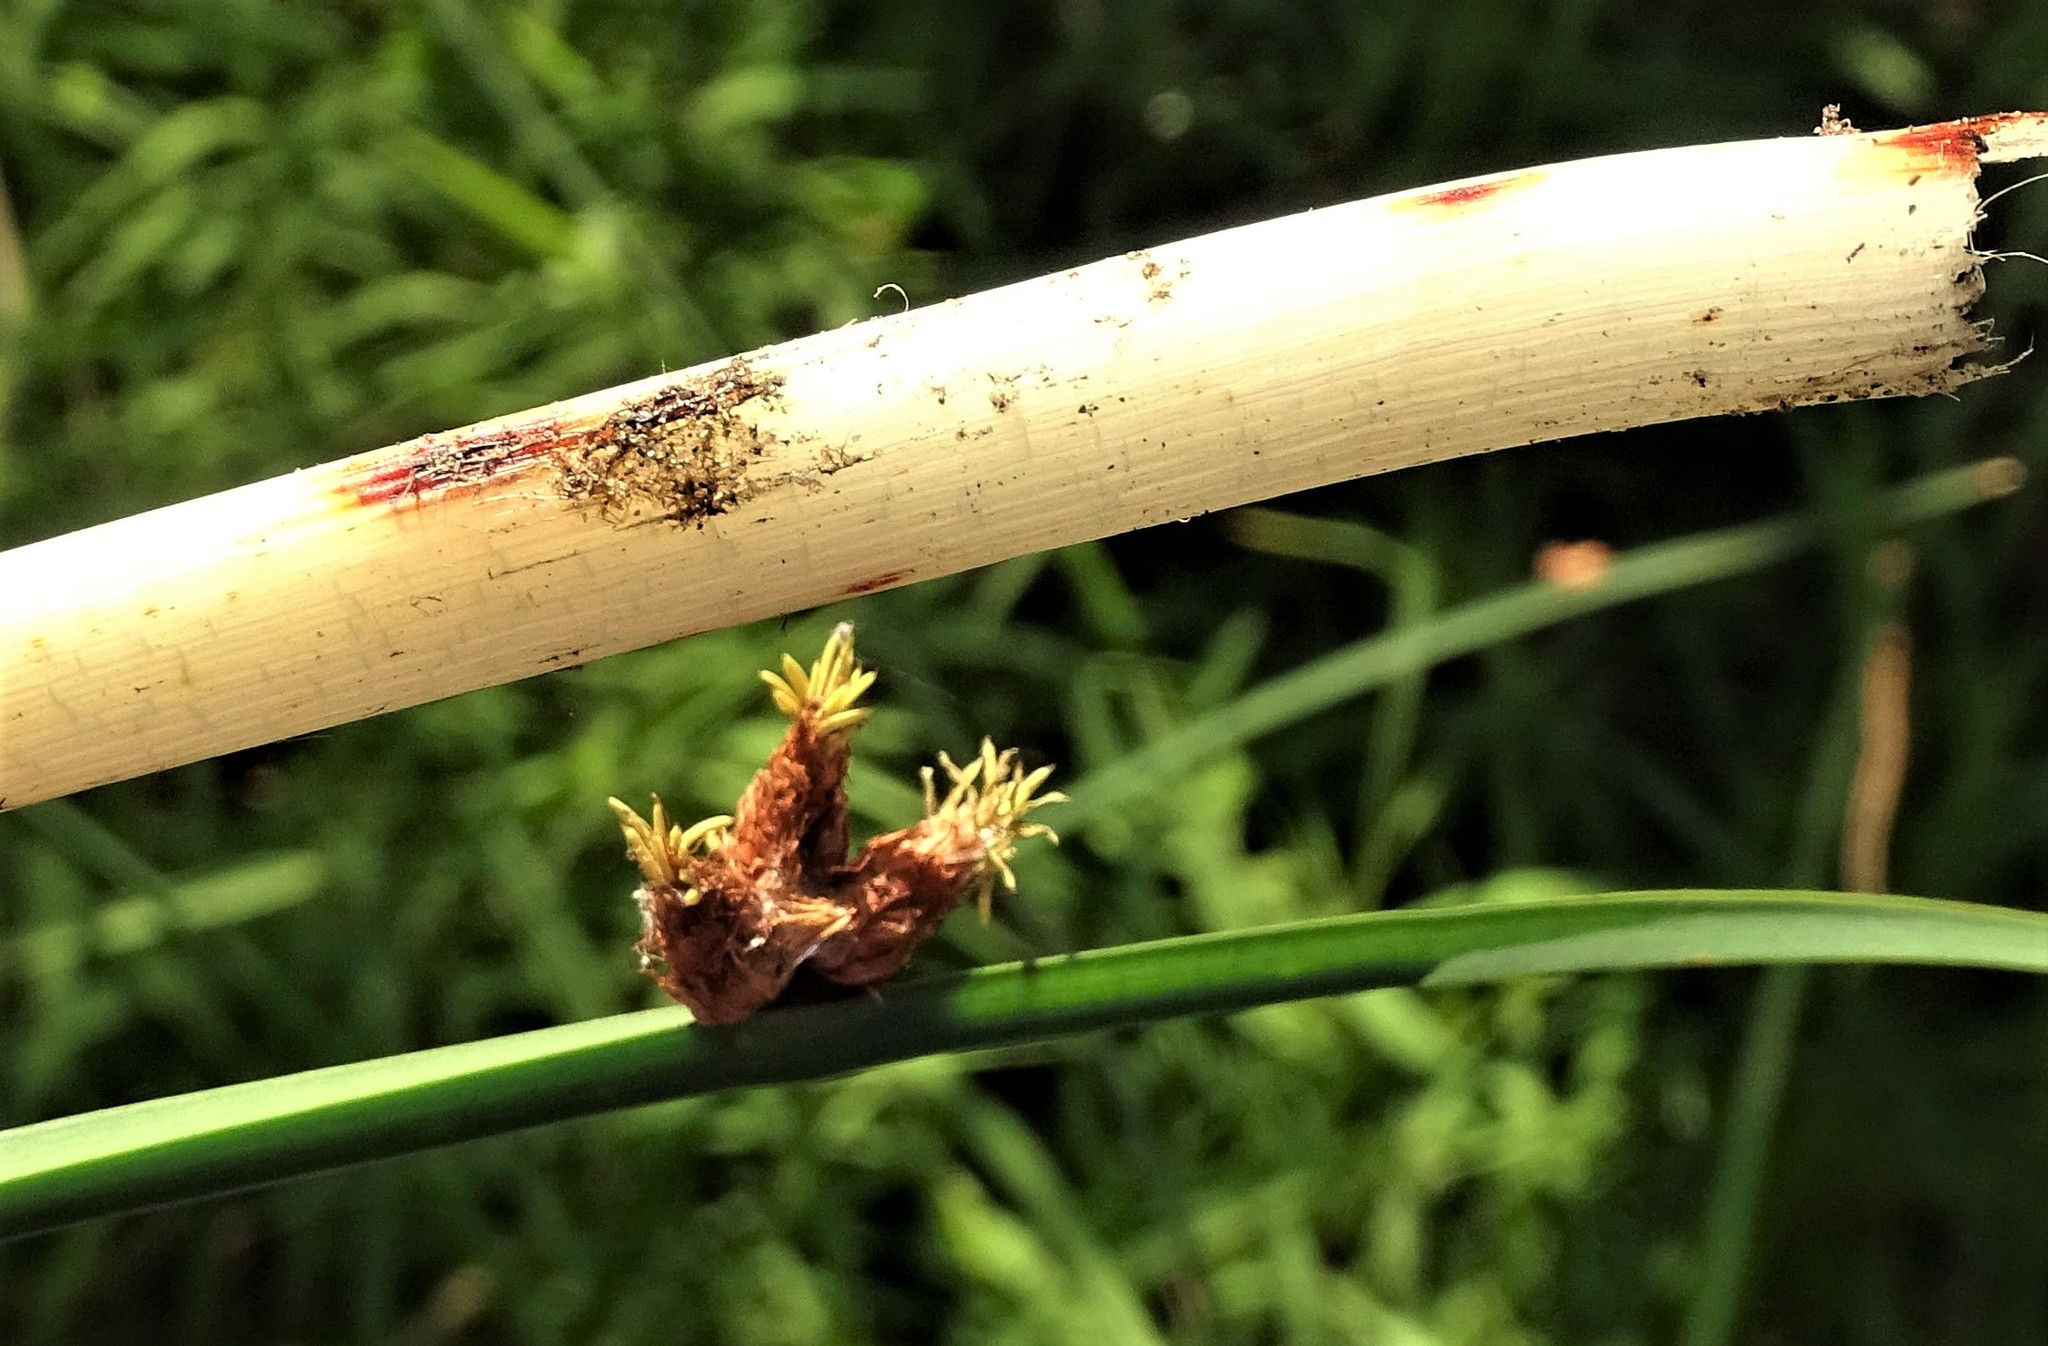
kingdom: Plantae
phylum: Tracheophyta
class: Liliopsida
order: Poales
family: Cyperaceae
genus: Schoenoplectus
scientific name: Schoenoplectus pungens
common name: Sharp club-rush
